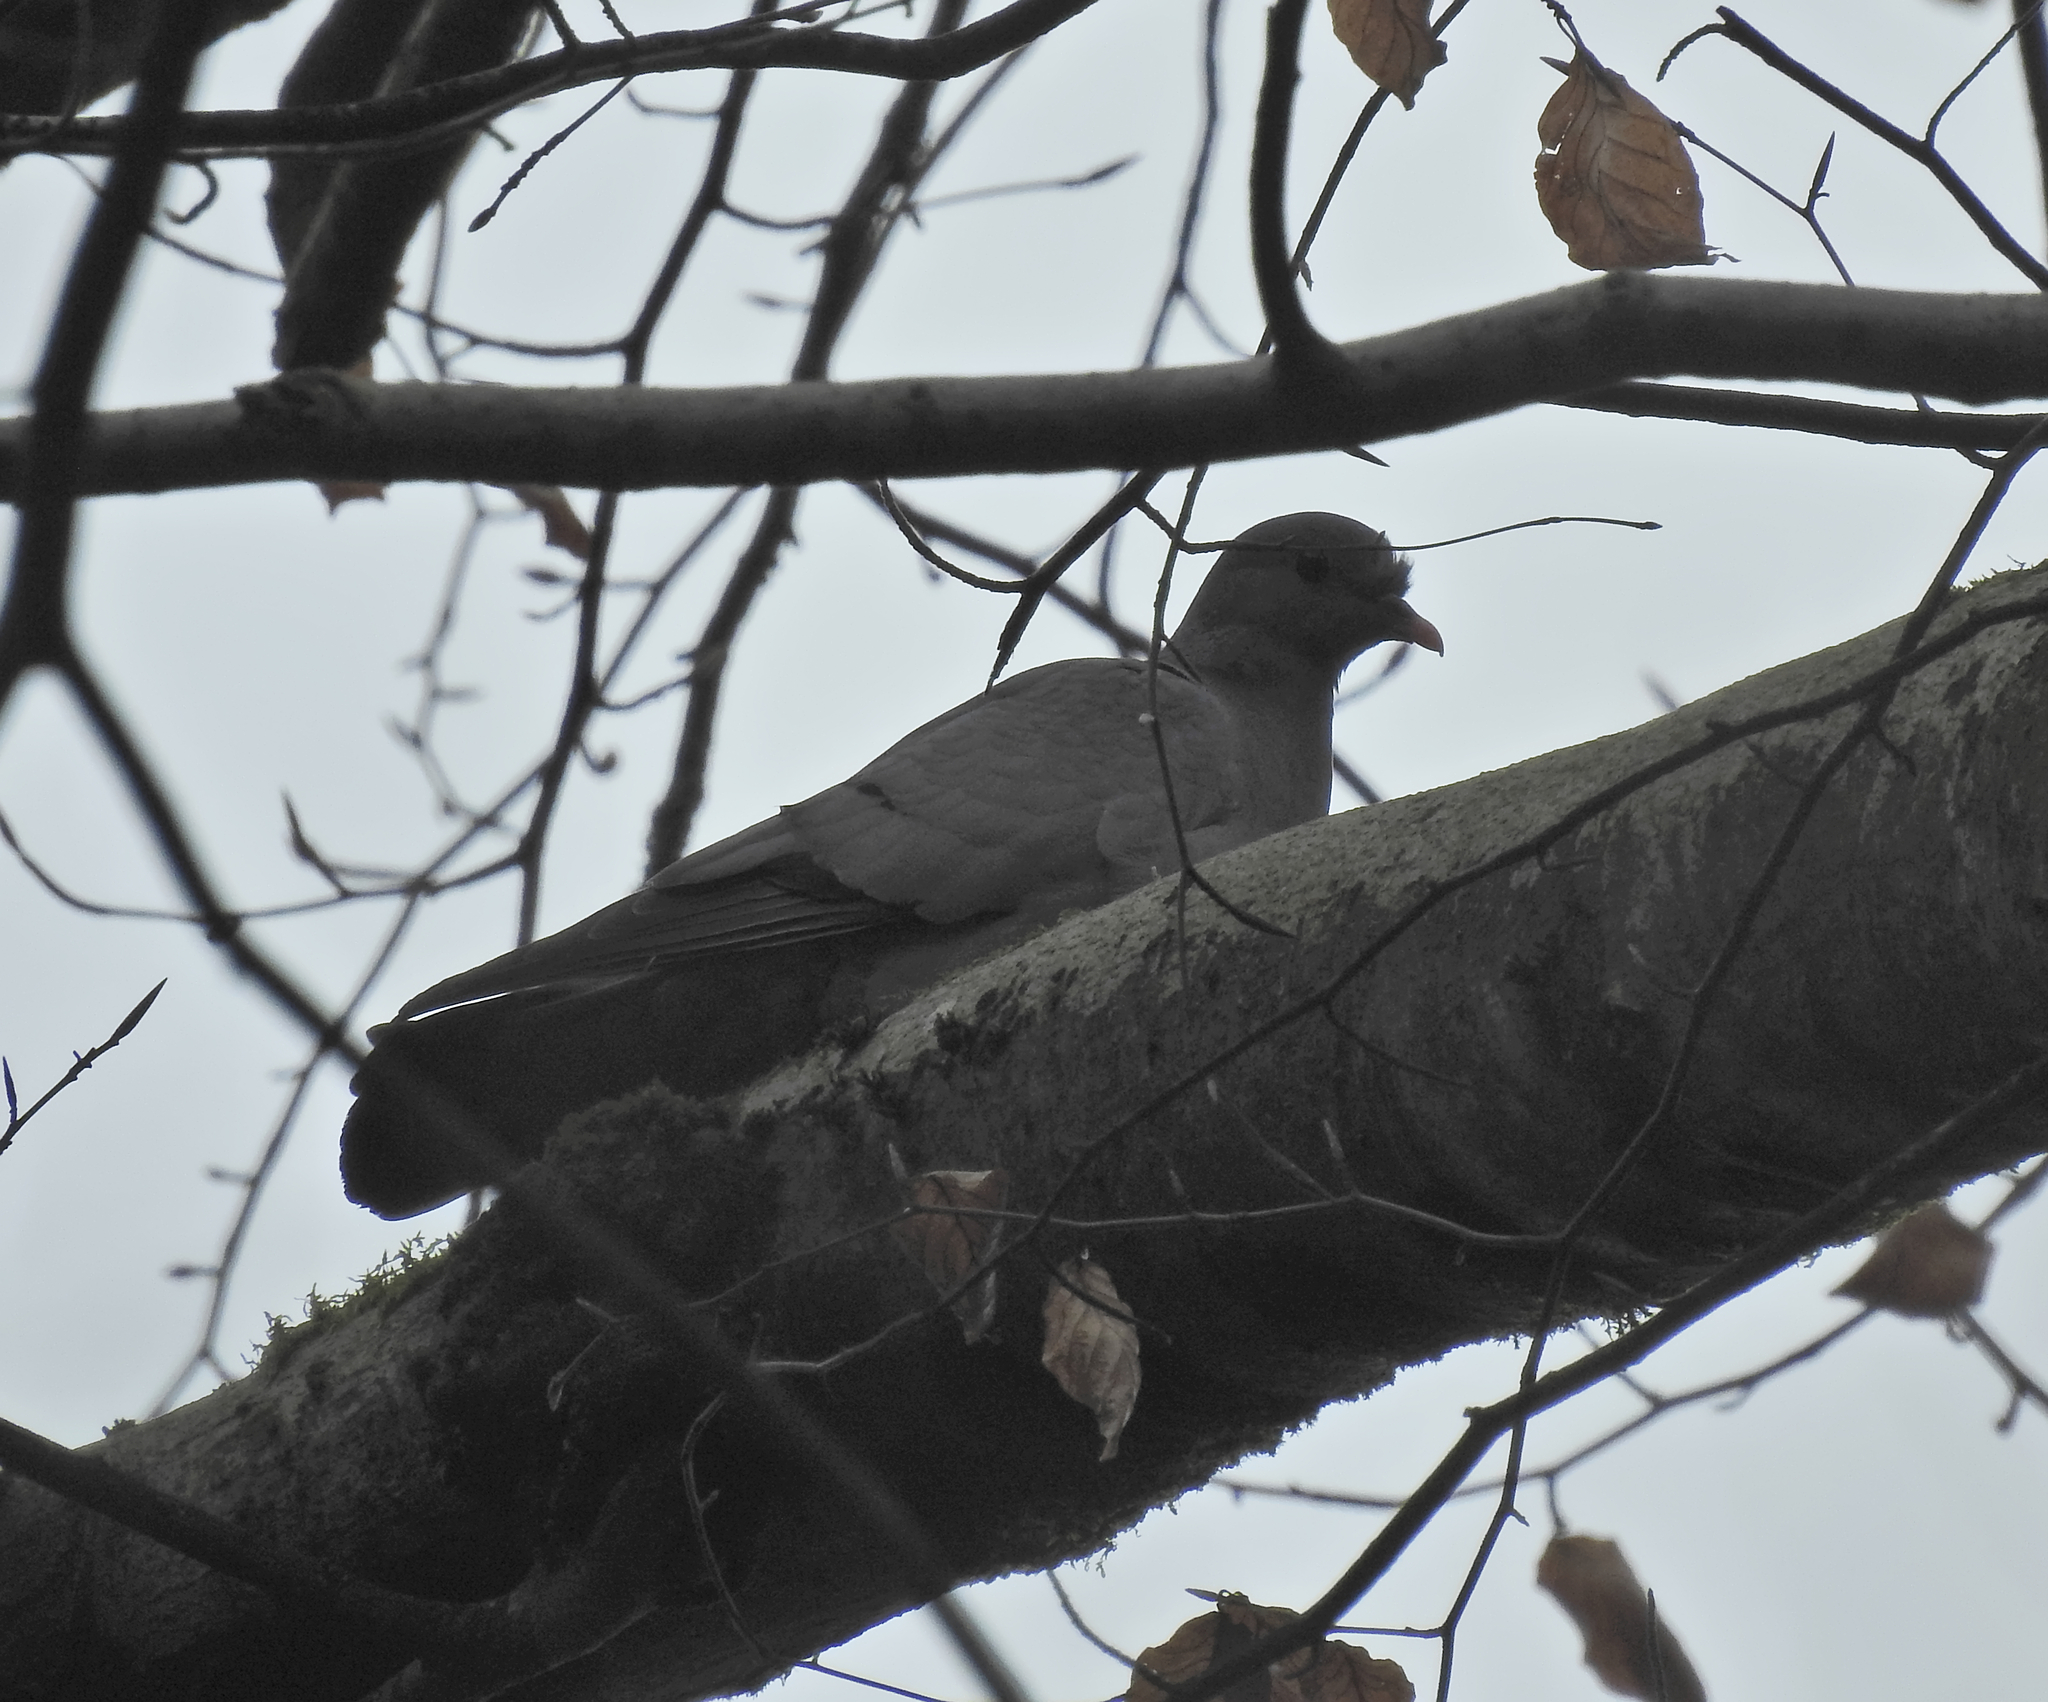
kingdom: Animalia
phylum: Chordata
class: Aves
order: Columbiformes
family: Columbidae
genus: Columba
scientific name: Columba oenas
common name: Stock dove
